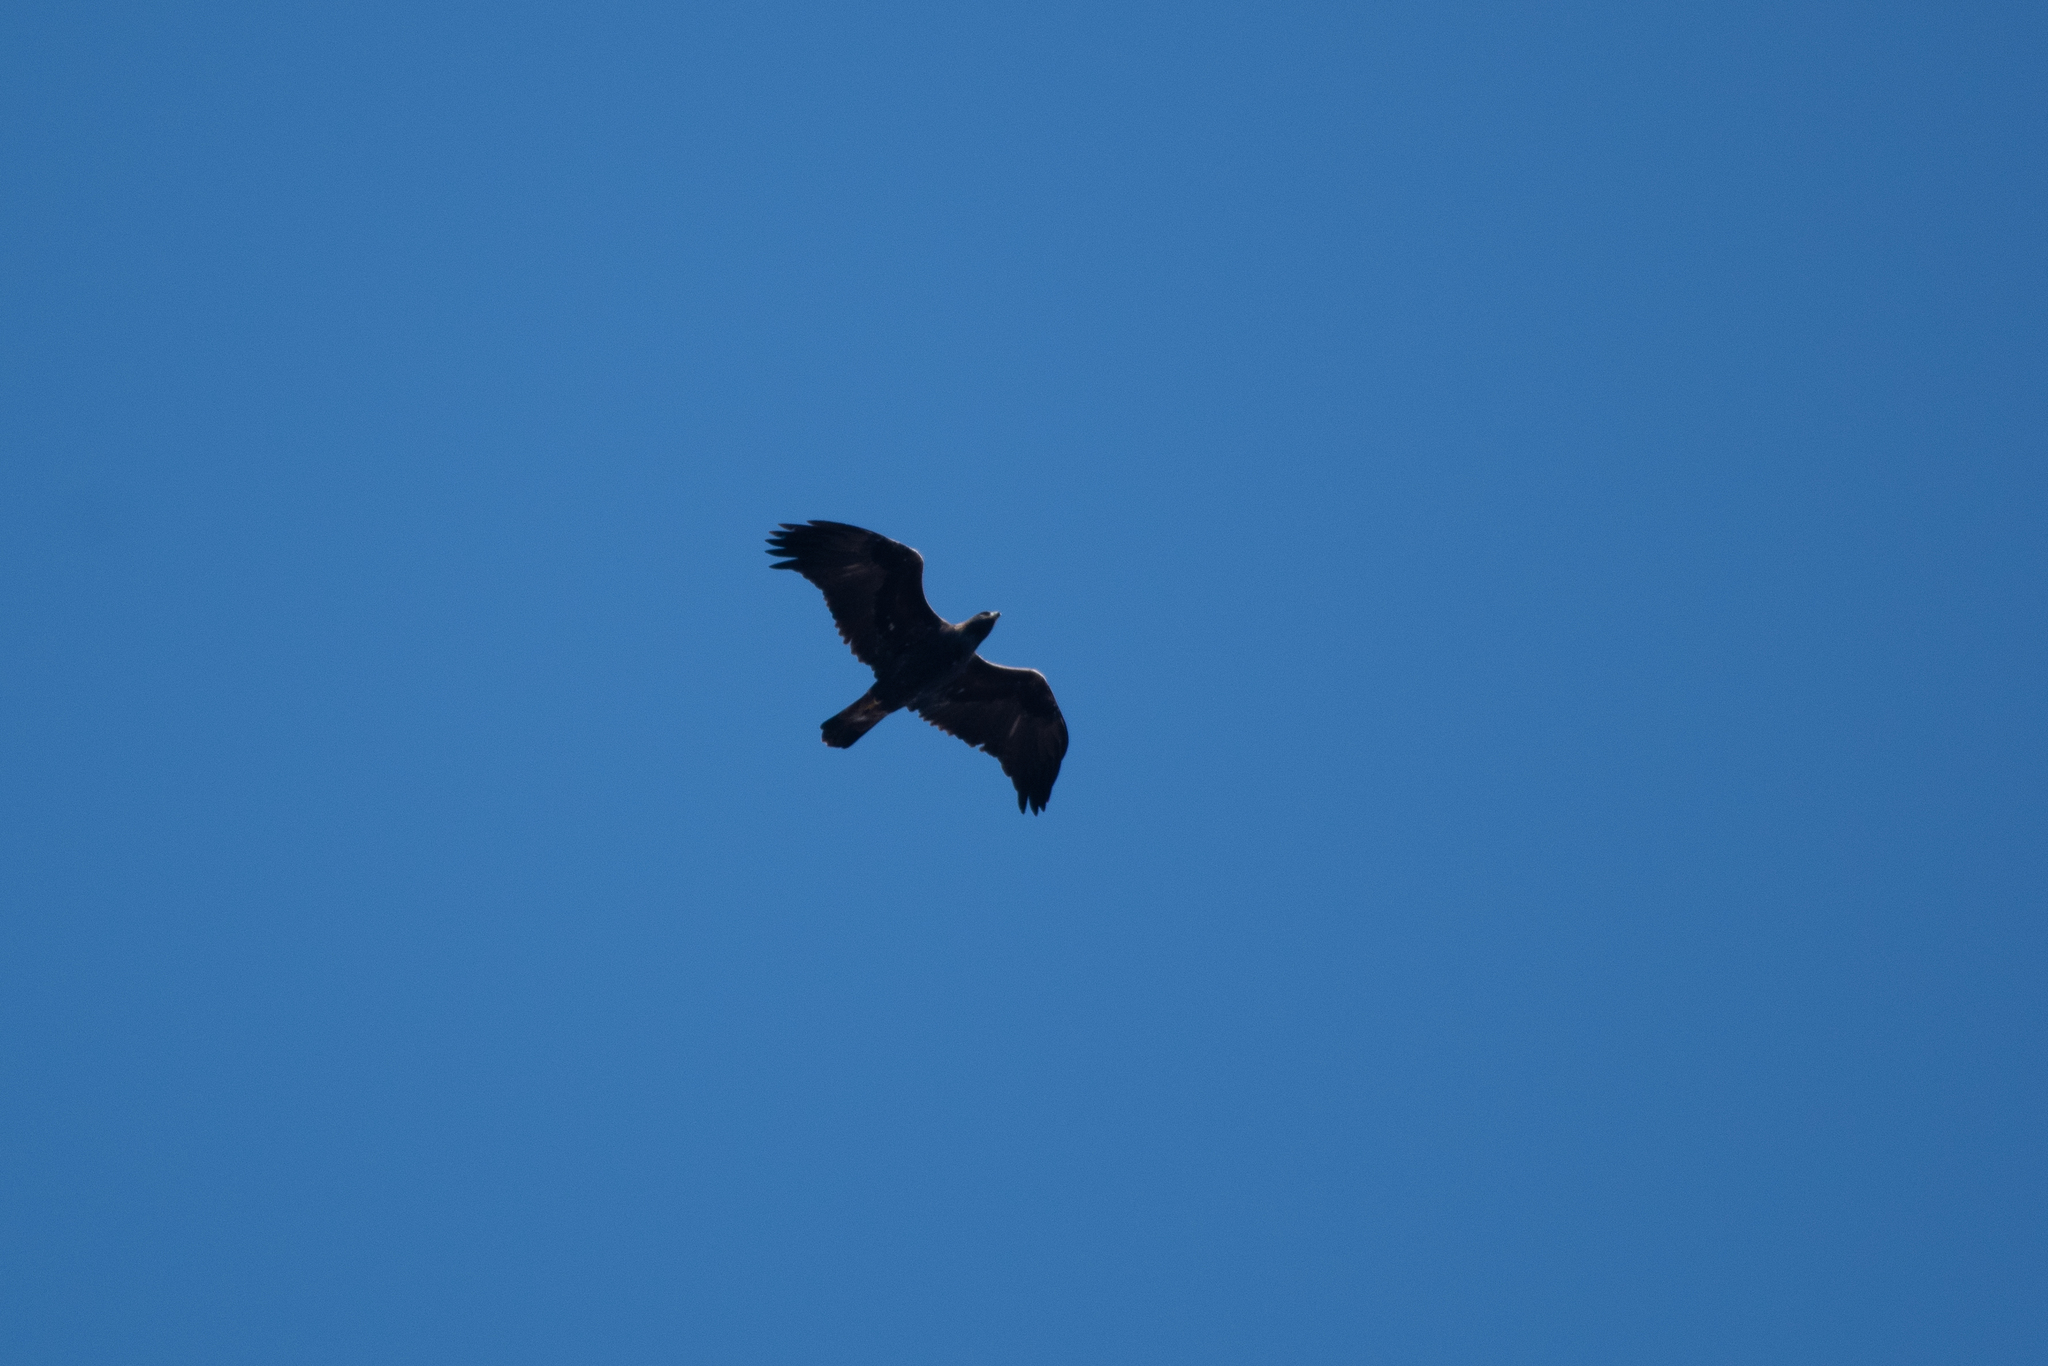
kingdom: Animalia
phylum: Chordata
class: Aves
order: Accipitriformes
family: Accipitridae
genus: Aquila
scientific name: Aquila chrysaetos
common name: Golden eagle
